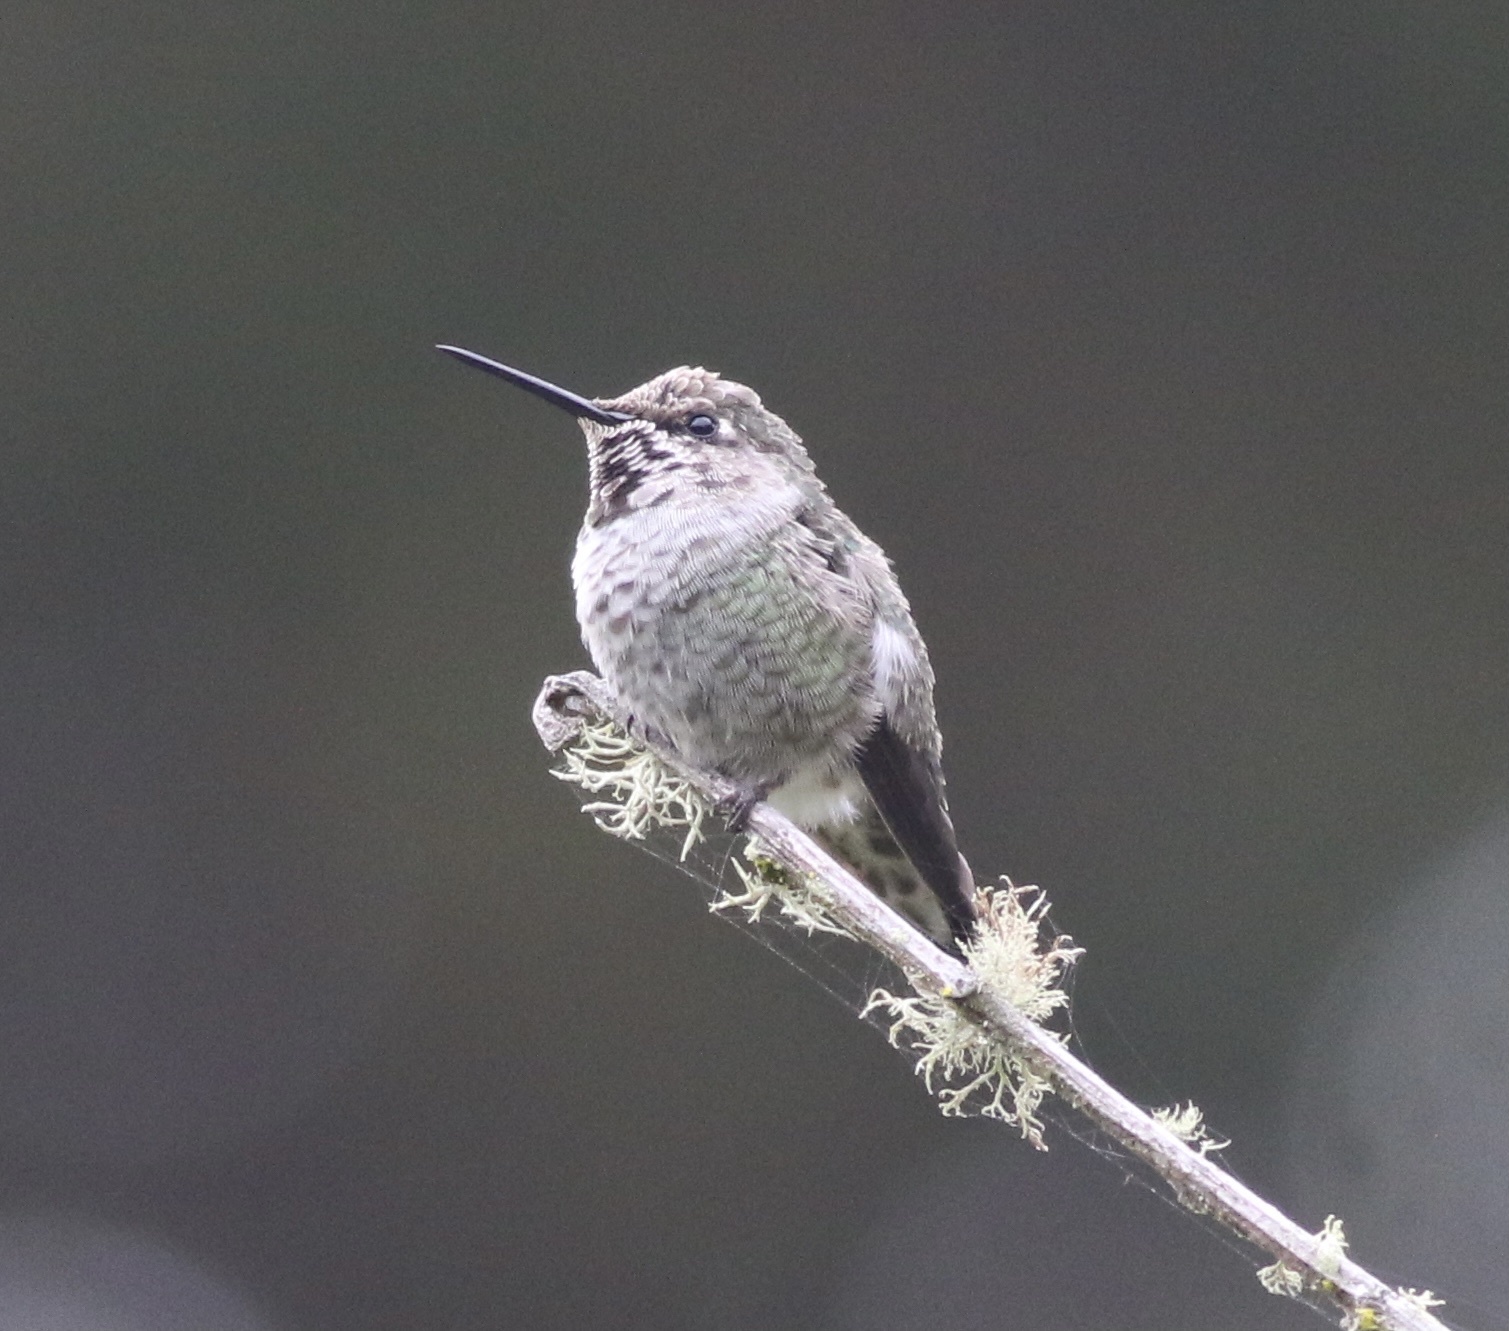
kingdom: Animalia
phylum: Chordata
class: Aves
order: Apodiformes
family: Trochilidae
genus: Calypte
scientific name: Calypte anna
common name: Anna's hummingbird
